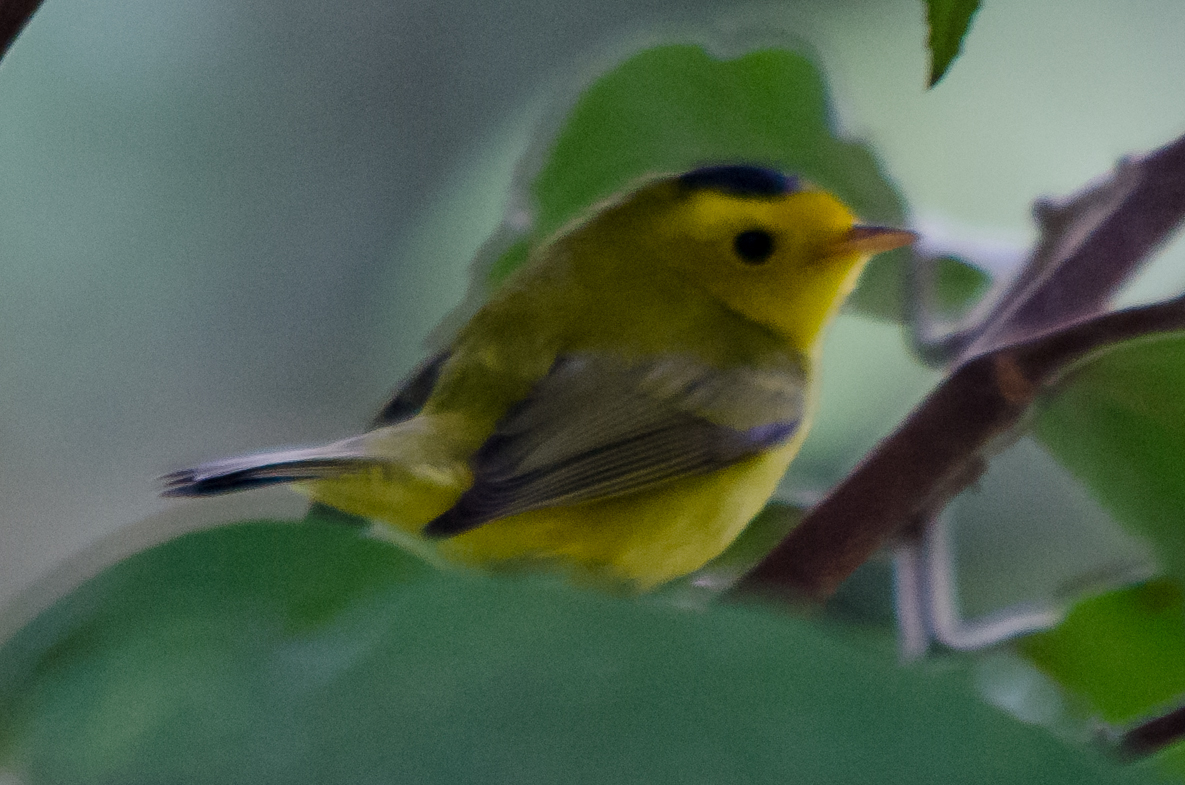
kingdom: Animalia
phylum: Chordata
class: Aves
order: Passeriformes
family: Parulidae
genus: Cardellina
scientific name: Cardellina pusilla
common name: Wilson's warbler
